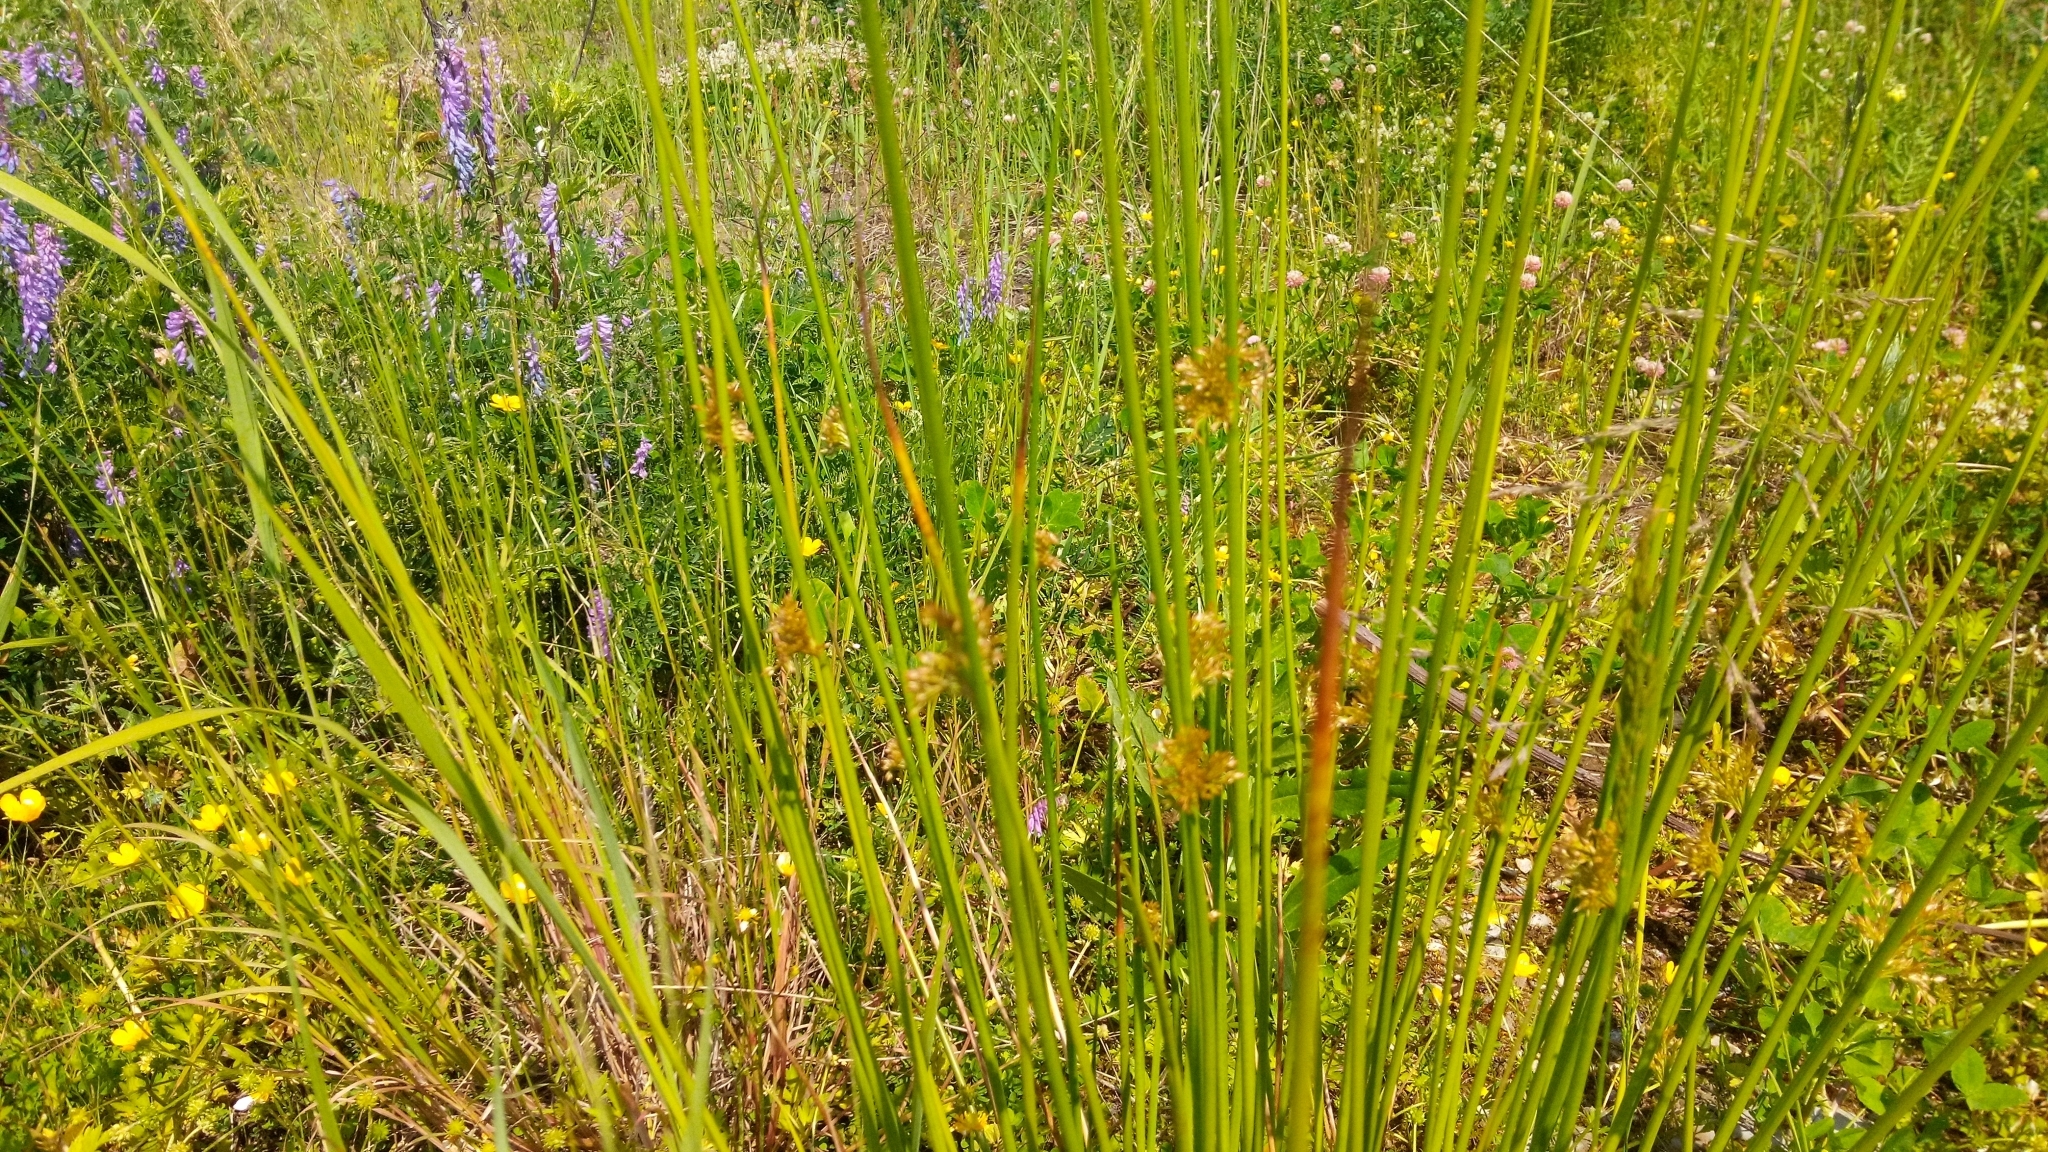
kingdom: Plantae
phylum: Tracheophyta
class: Liliopsida
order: Poales
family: Juncaceae
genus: Juncus
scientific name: Juncus effusus
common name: Soft rush
